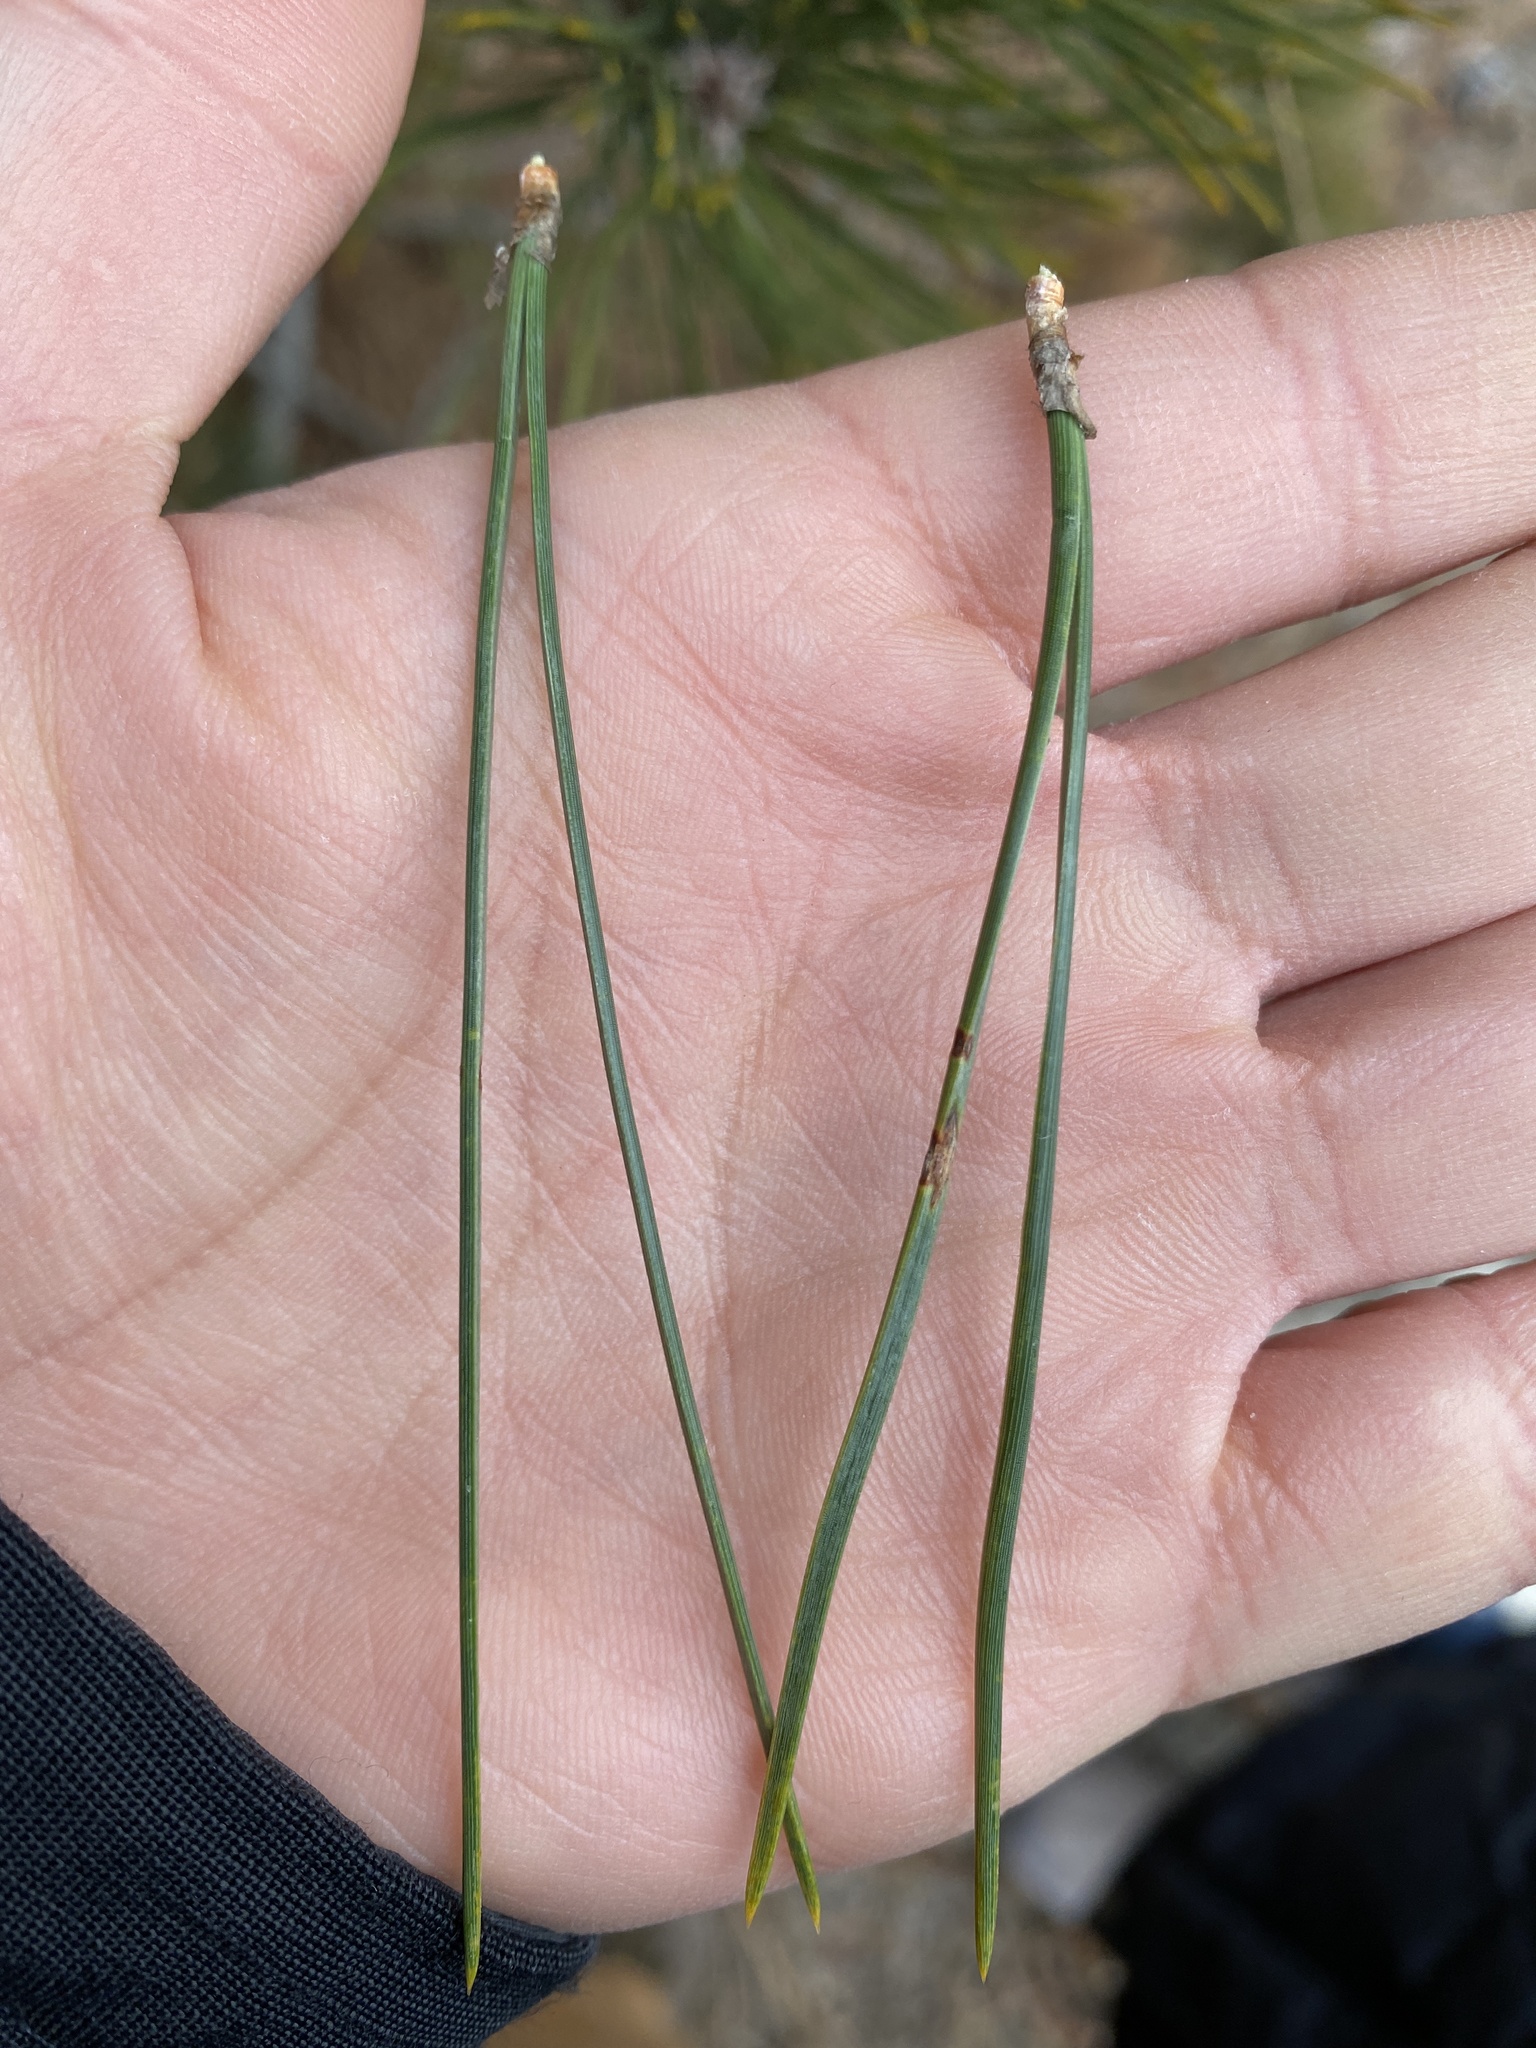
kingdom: Plantae
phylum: Tracheophyta
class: Pinopsida
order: Pinales
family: Pinaceae
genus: Pinus
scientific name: Pinus thunbergii
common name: Japanese black pine
